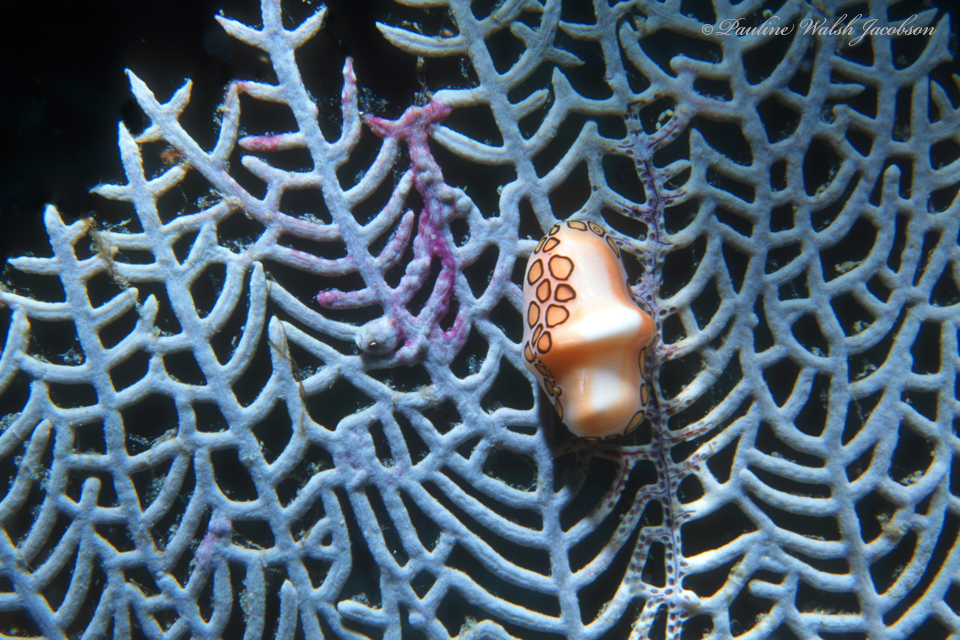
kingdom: Animalia
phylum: Mollusca
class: Gastropoda
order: Littorinimorpha
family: Ovulidae
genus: Cyphoma
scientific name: Cyphoma gibbosum
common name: Flamingo tongue
